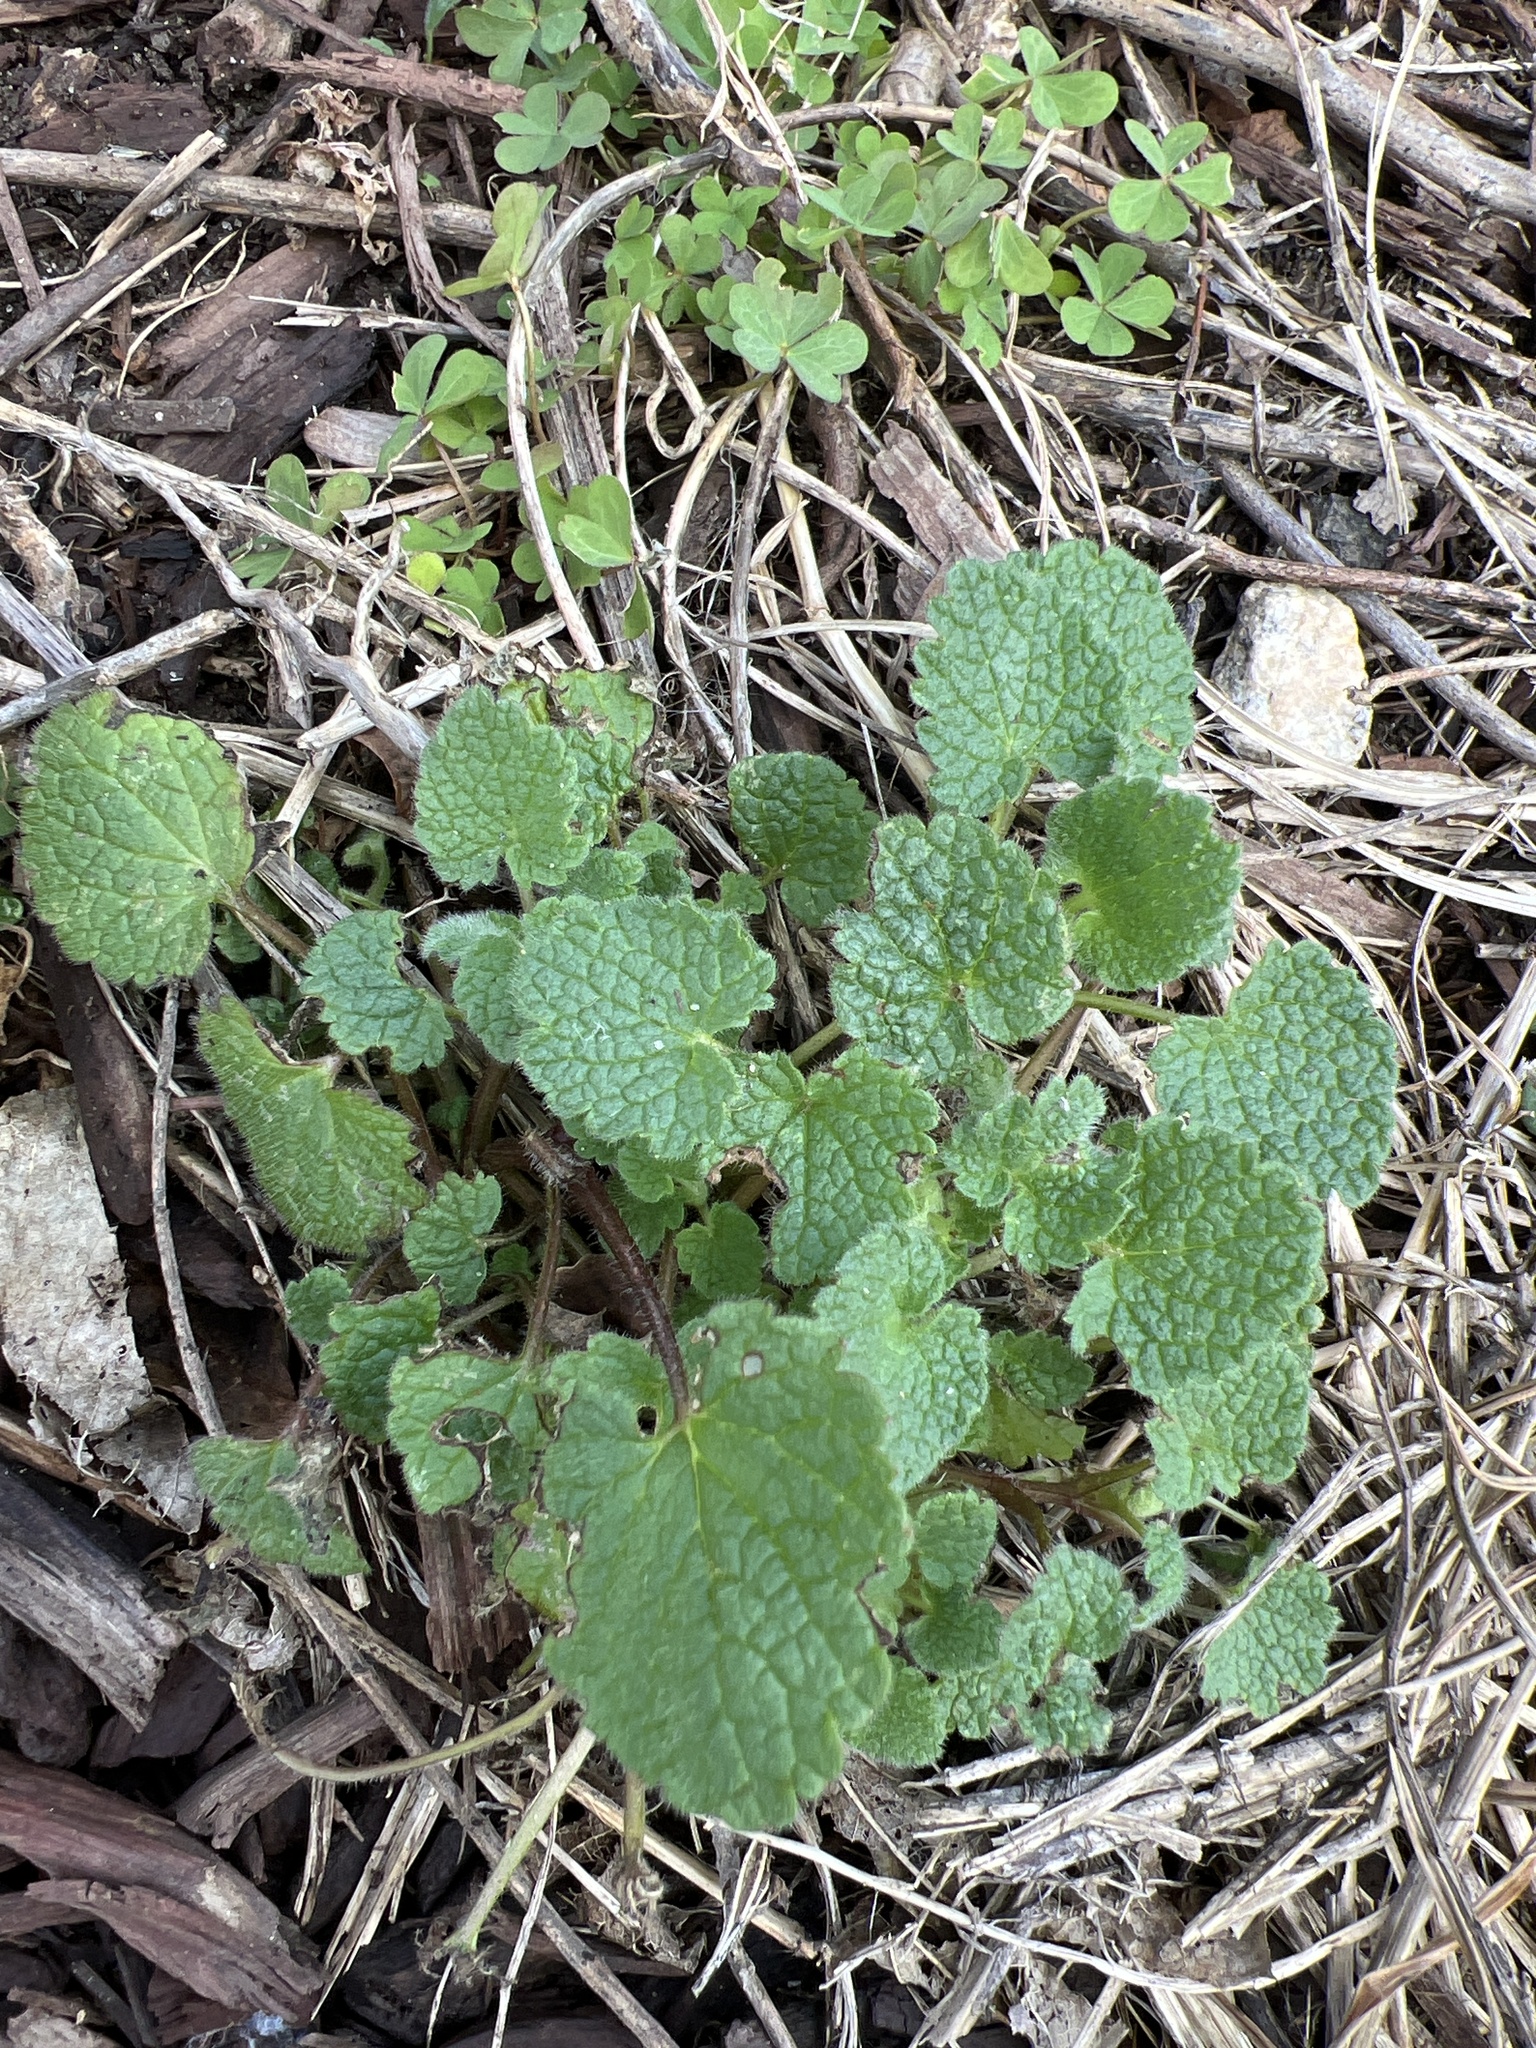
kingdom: Plantae
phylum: Tracheophyta
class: Magnoliopsida
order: Lamiales
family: Lamiaceae
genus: Lamium
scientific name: Lamium purpureum
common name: Red dead-nettle
